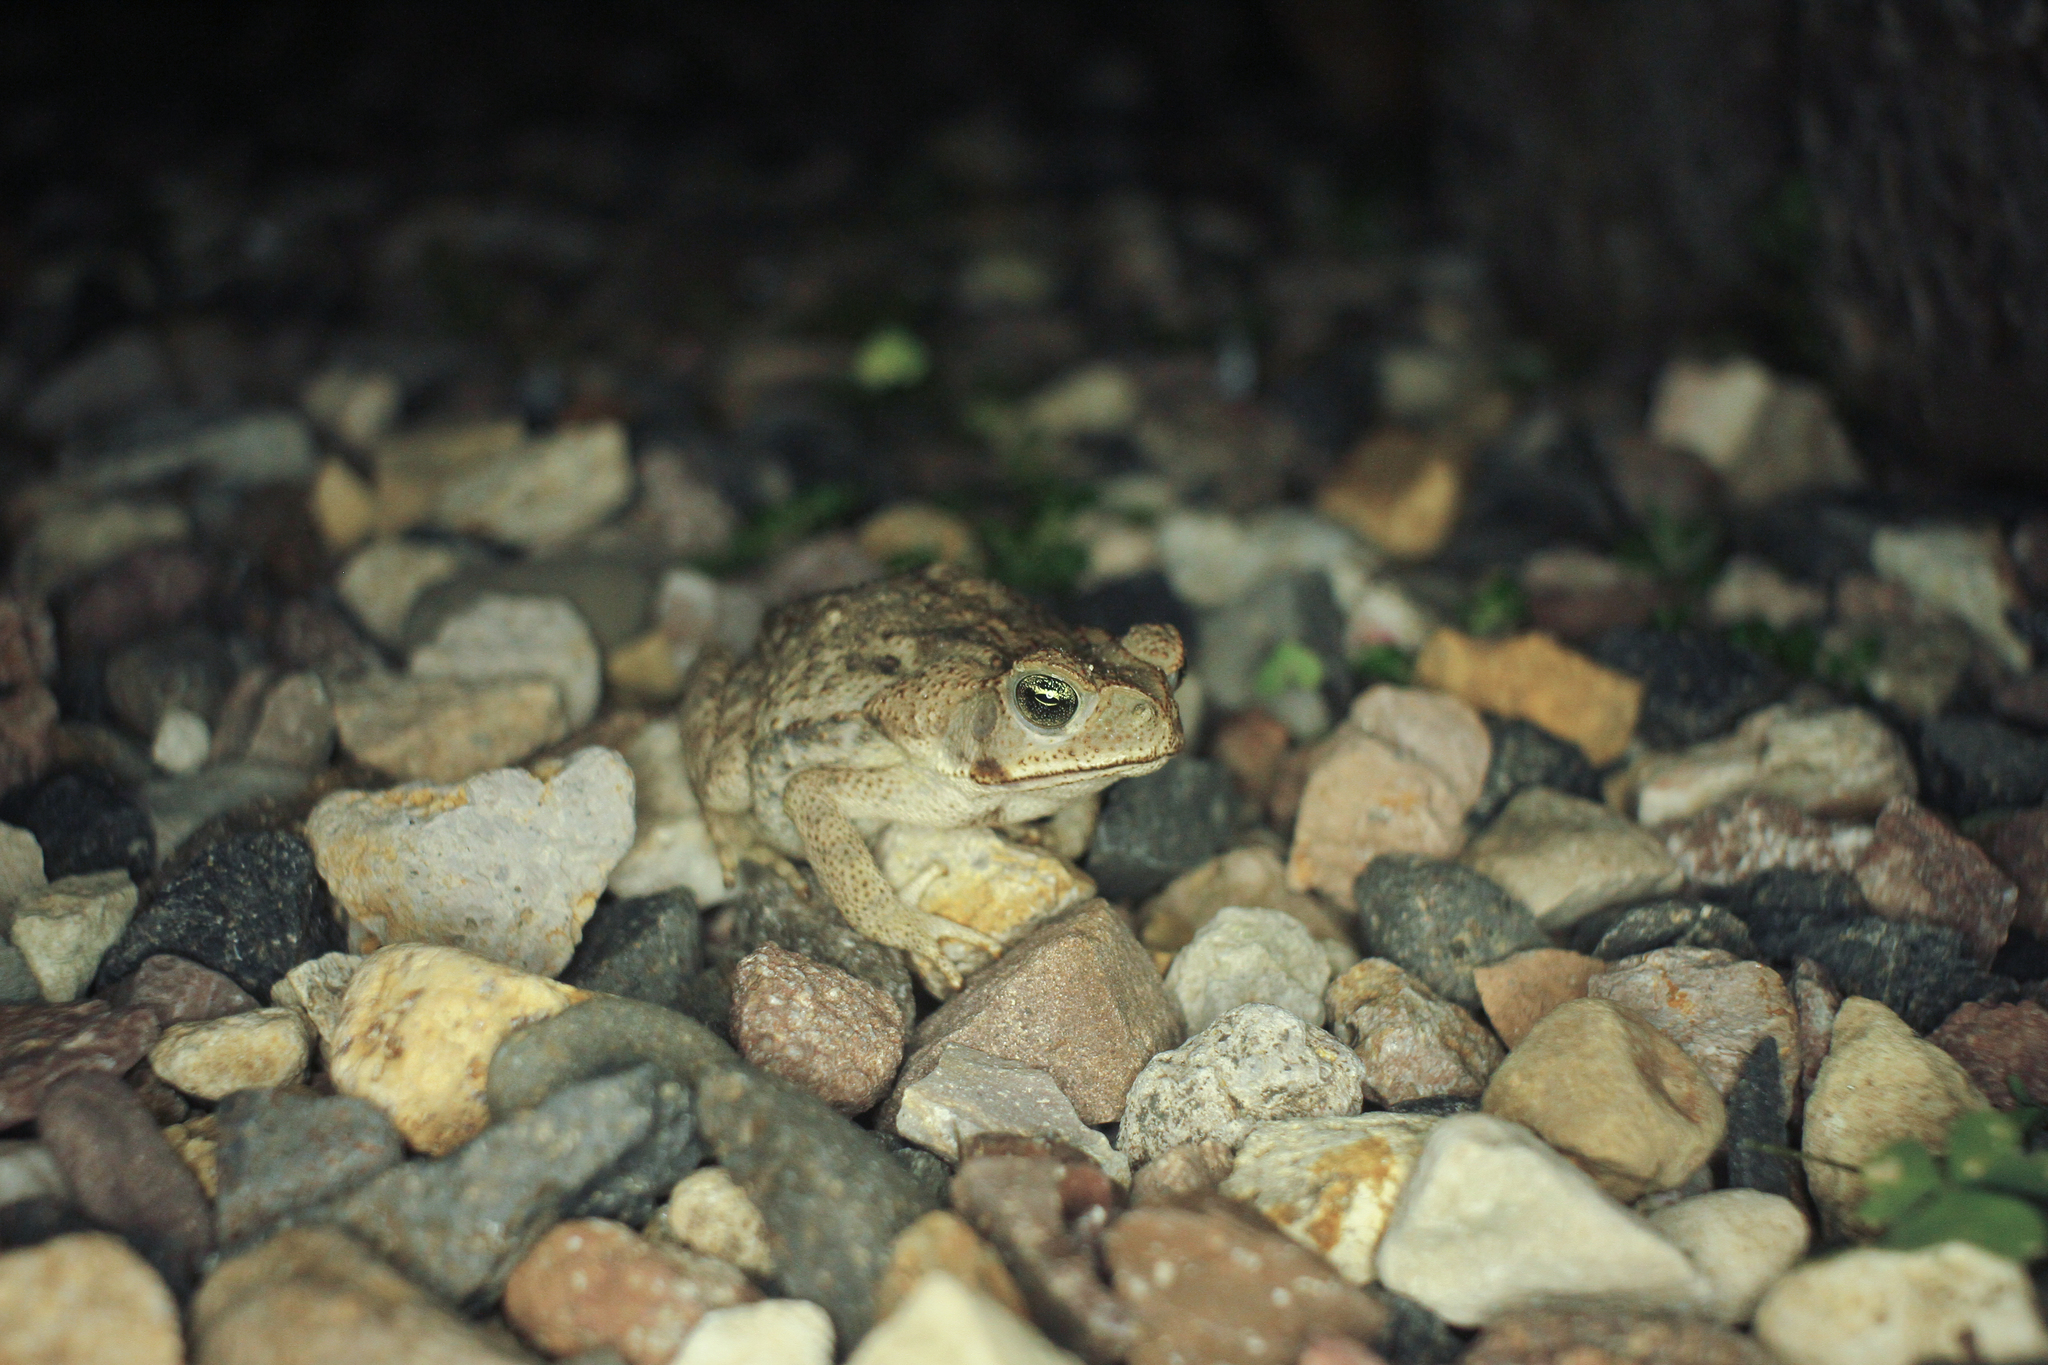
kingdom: Animalia
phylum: Chordata
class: Amphibia
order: Anura
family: Bufonidae
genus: Rhinella
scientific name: Rhinella horribilis
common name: Mesoamerican cane toad
